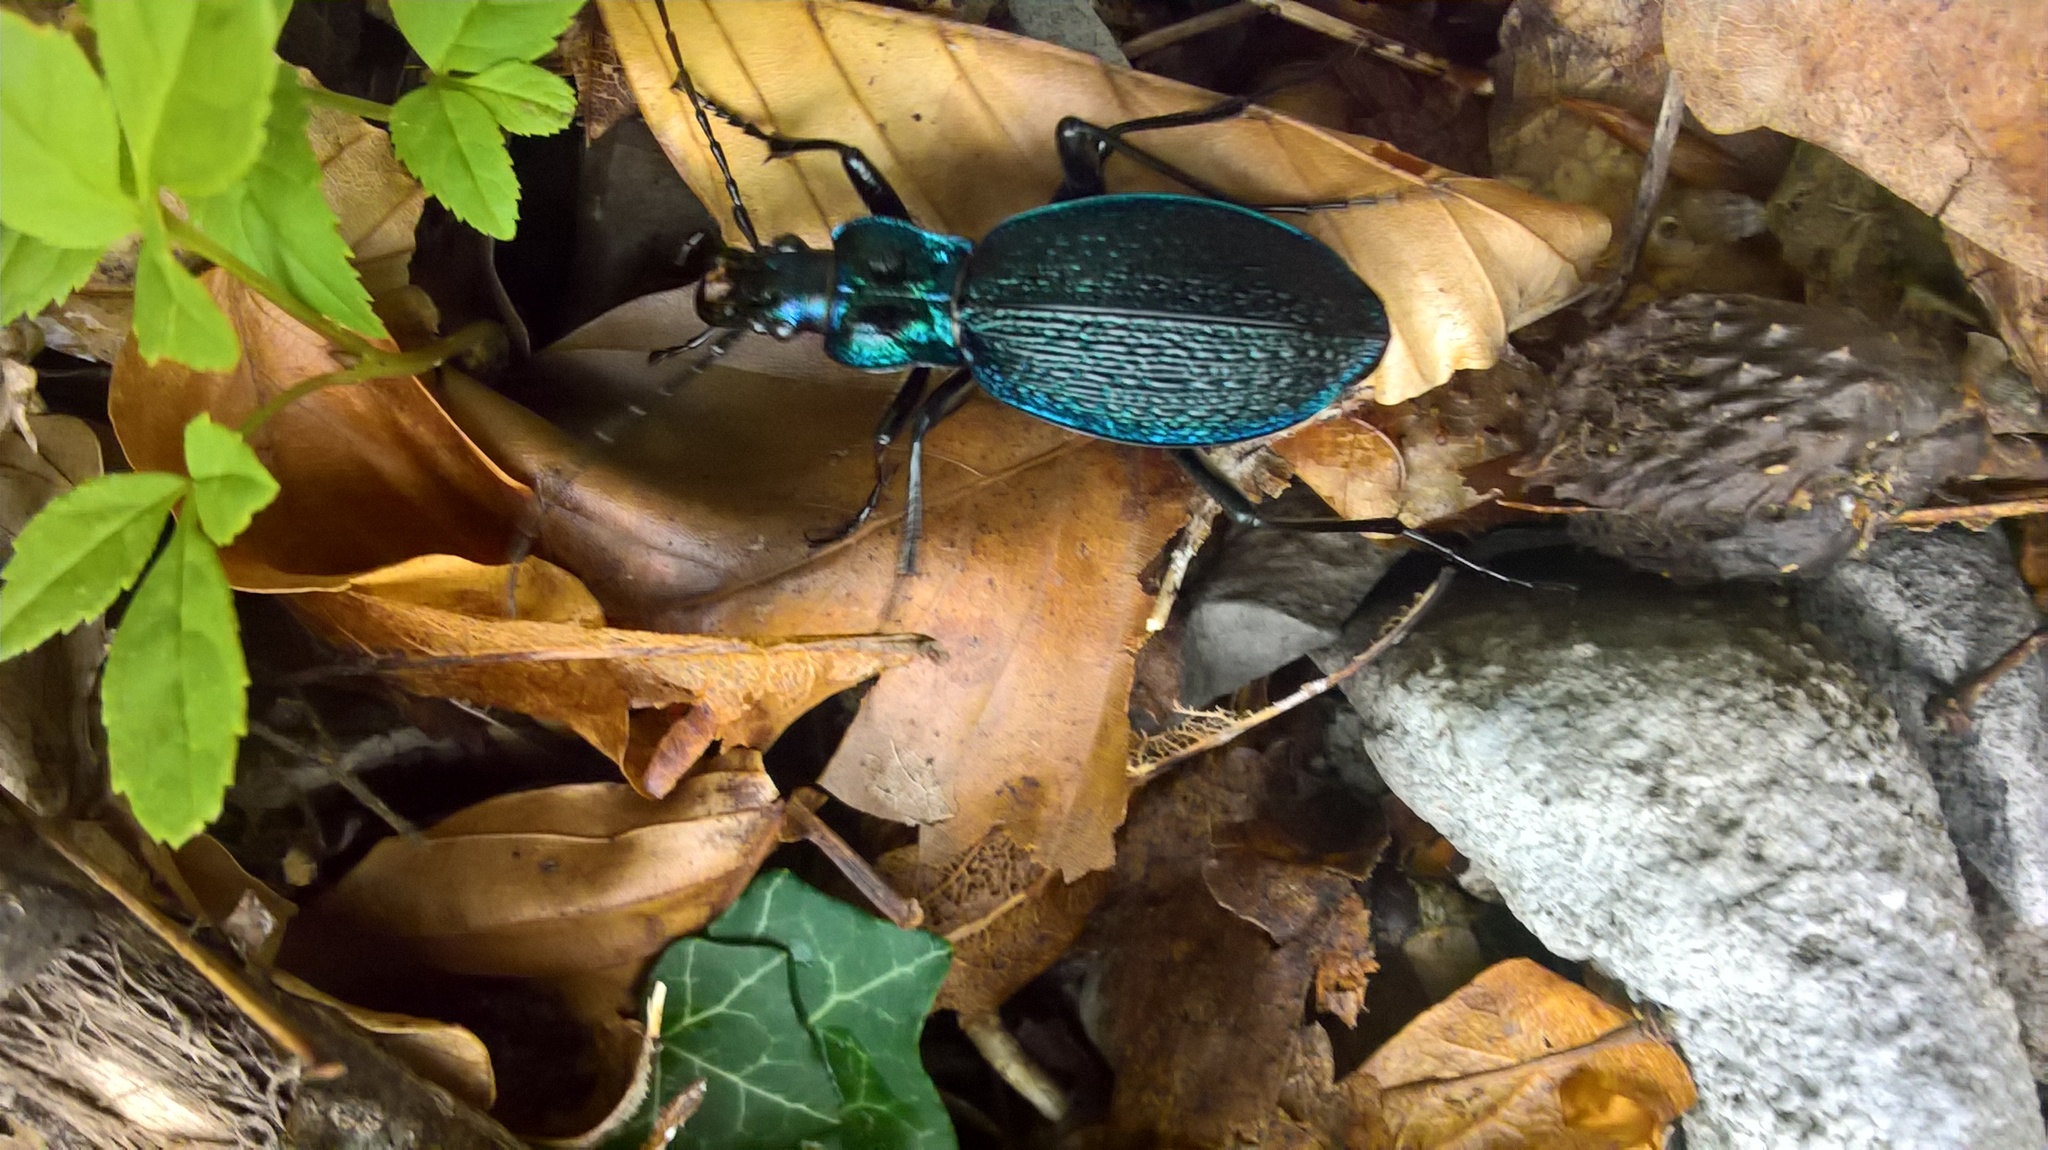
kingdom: Animalia
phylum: Arthropoda
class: Insecta
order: Coleoptera
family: Carabidae
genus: Carabus
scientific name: Carabus intricatus
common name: Blue ground beetle
